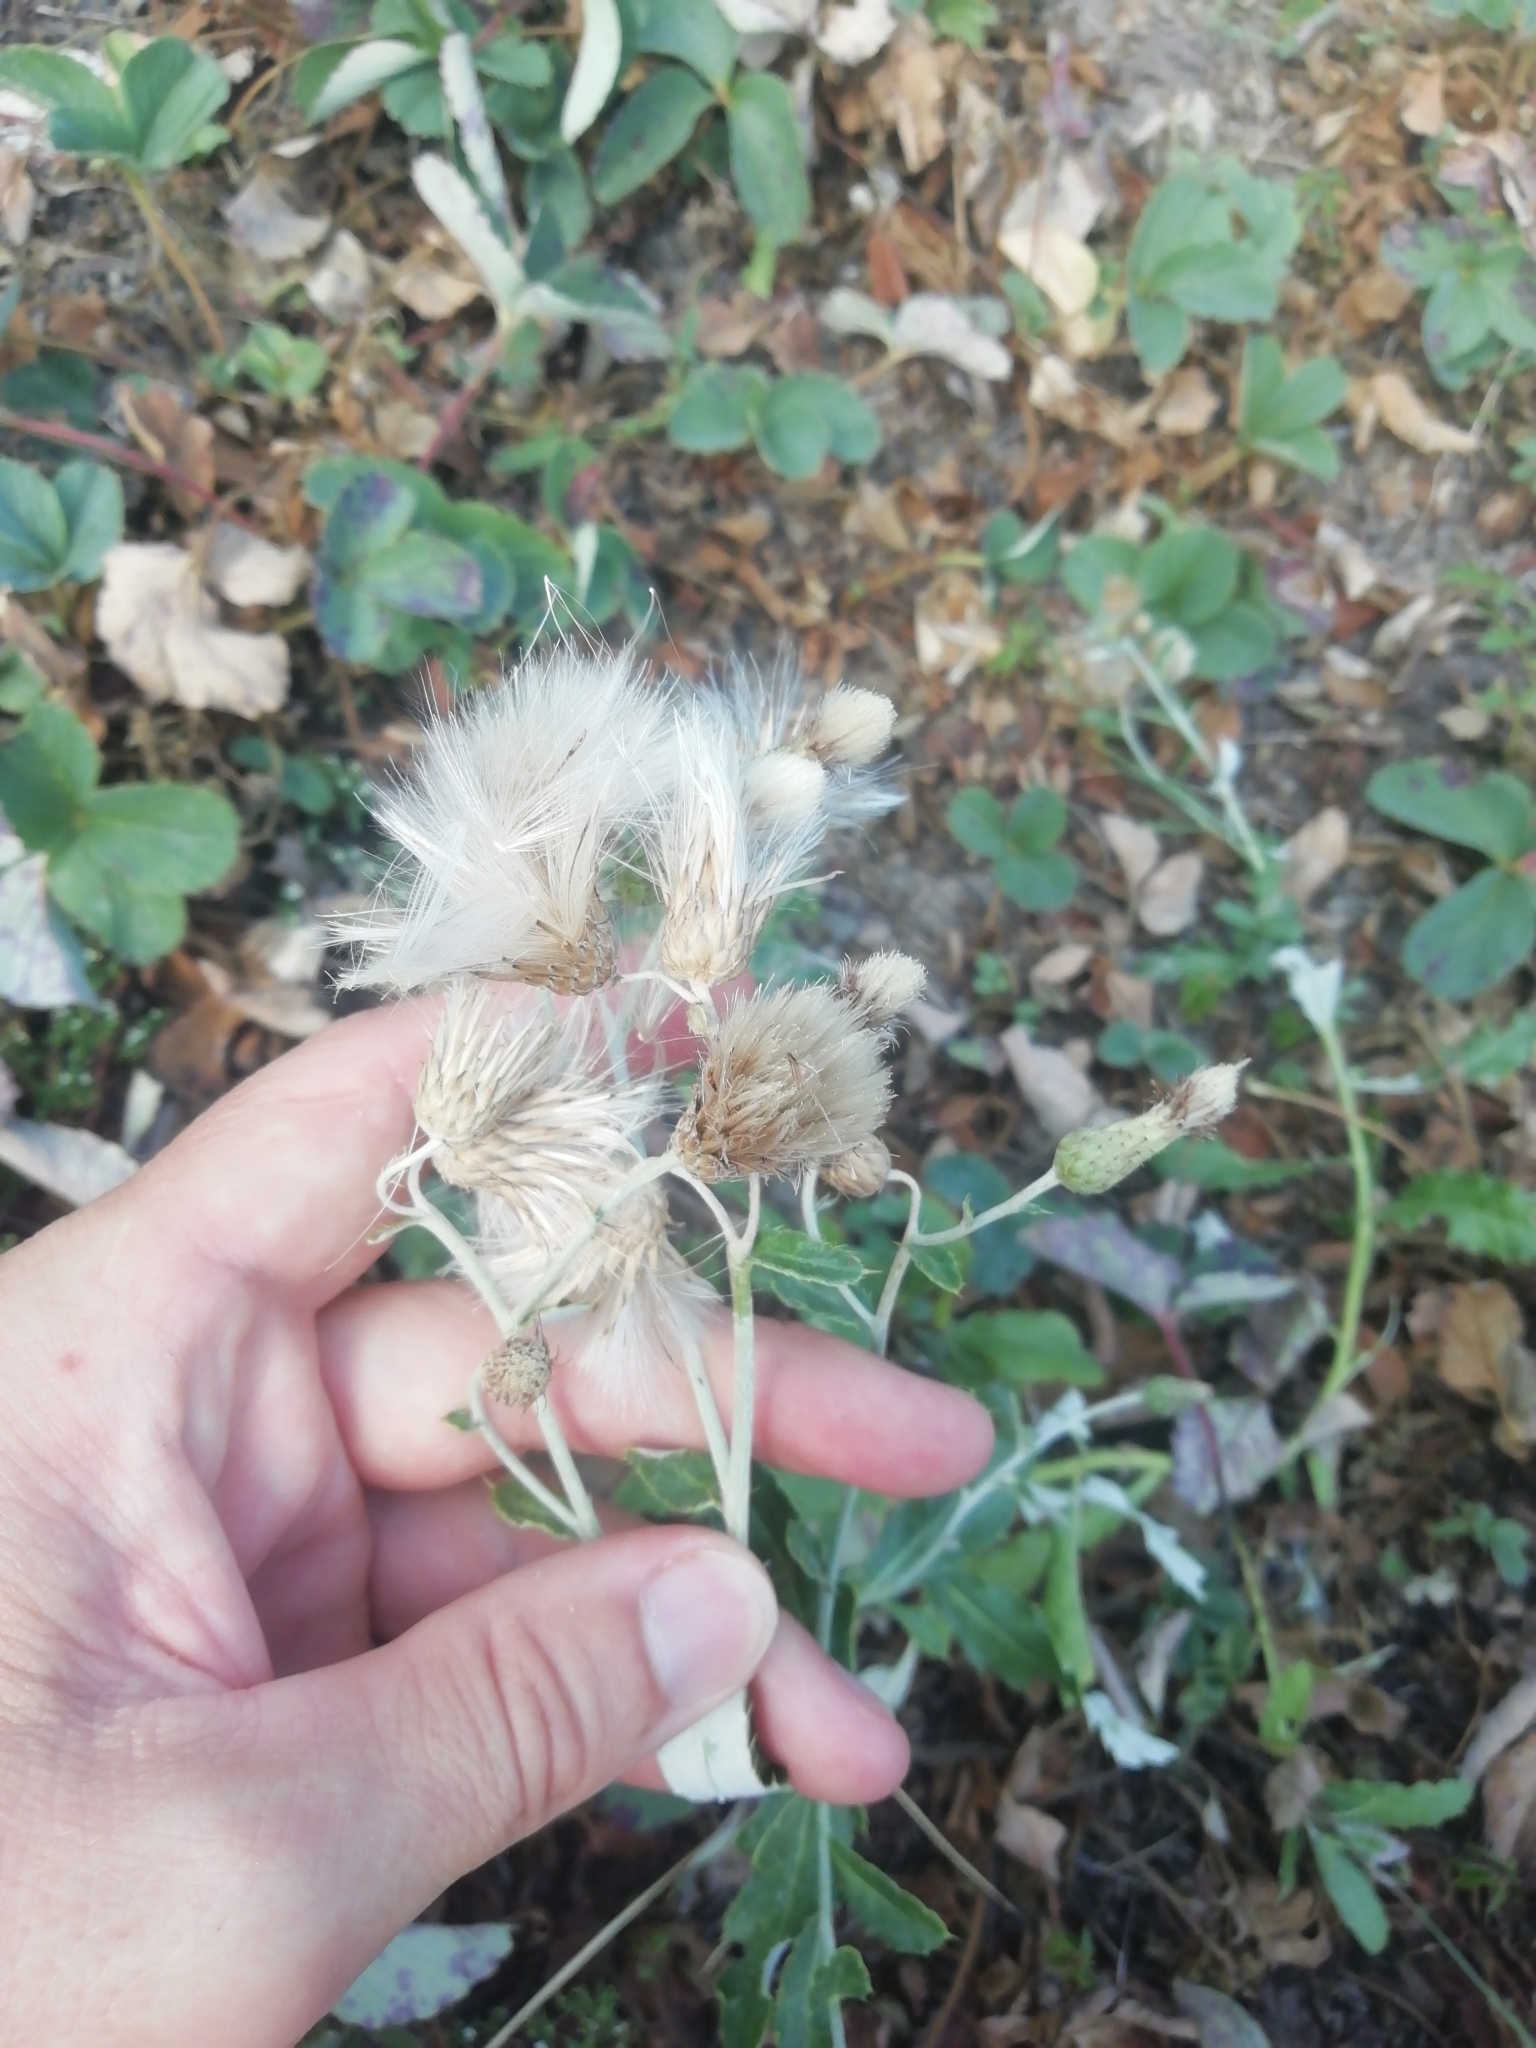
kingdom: Plantae
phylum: Tracheophyta
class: Magnoliopsida
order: Asterales
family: Asteraceae
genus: Cirsium
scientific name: Cirsium arvense
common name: Creeping thistle
